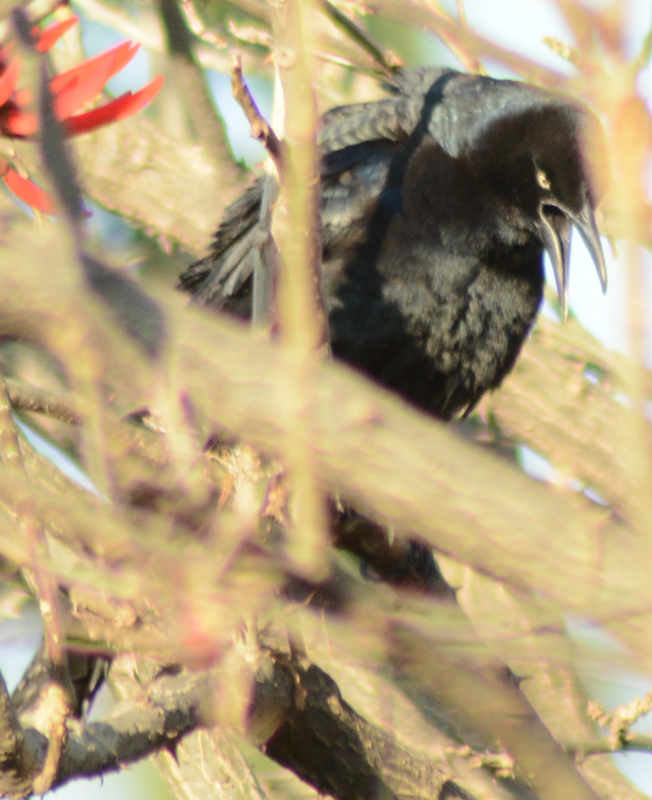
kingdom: Animalia
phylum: Chordata
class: Aves
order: Passeriformes
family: Icteridae
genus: Quiscalus
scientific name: Quiscalus mexicanus
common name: Great-tailed grackle
